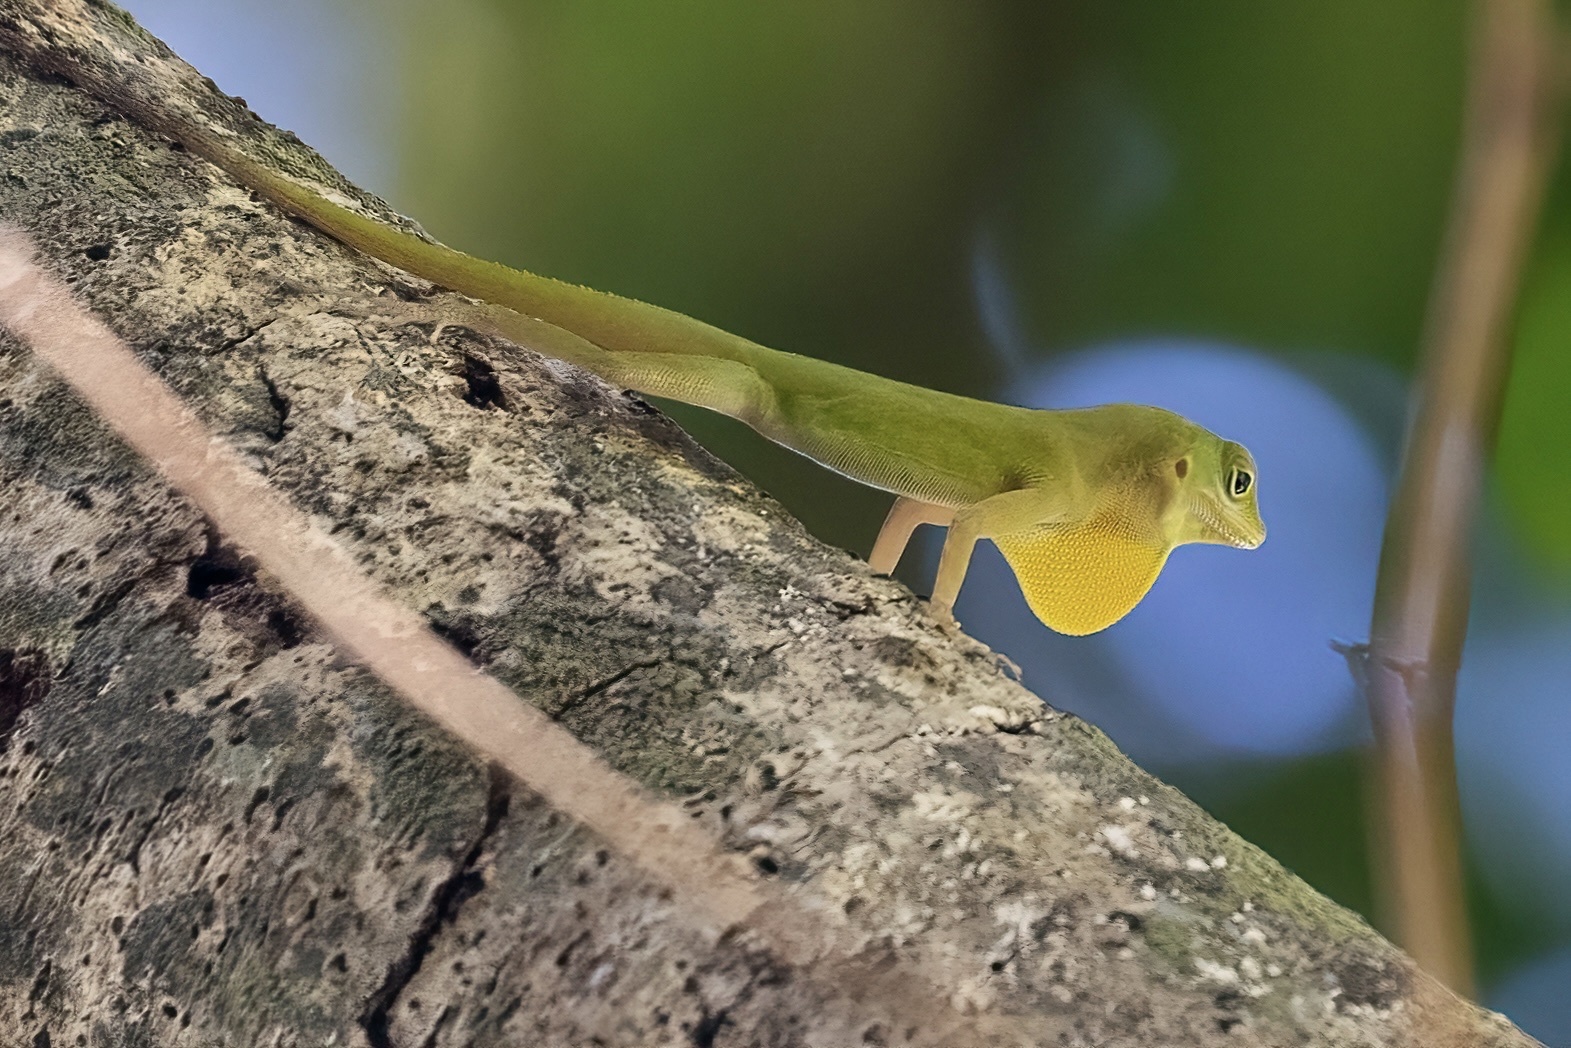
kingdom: Animalia
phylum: Chordata
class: Squamata
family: Dactyloidae
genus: Anolis
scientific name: Anolis evermanni
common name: Emerald anole
